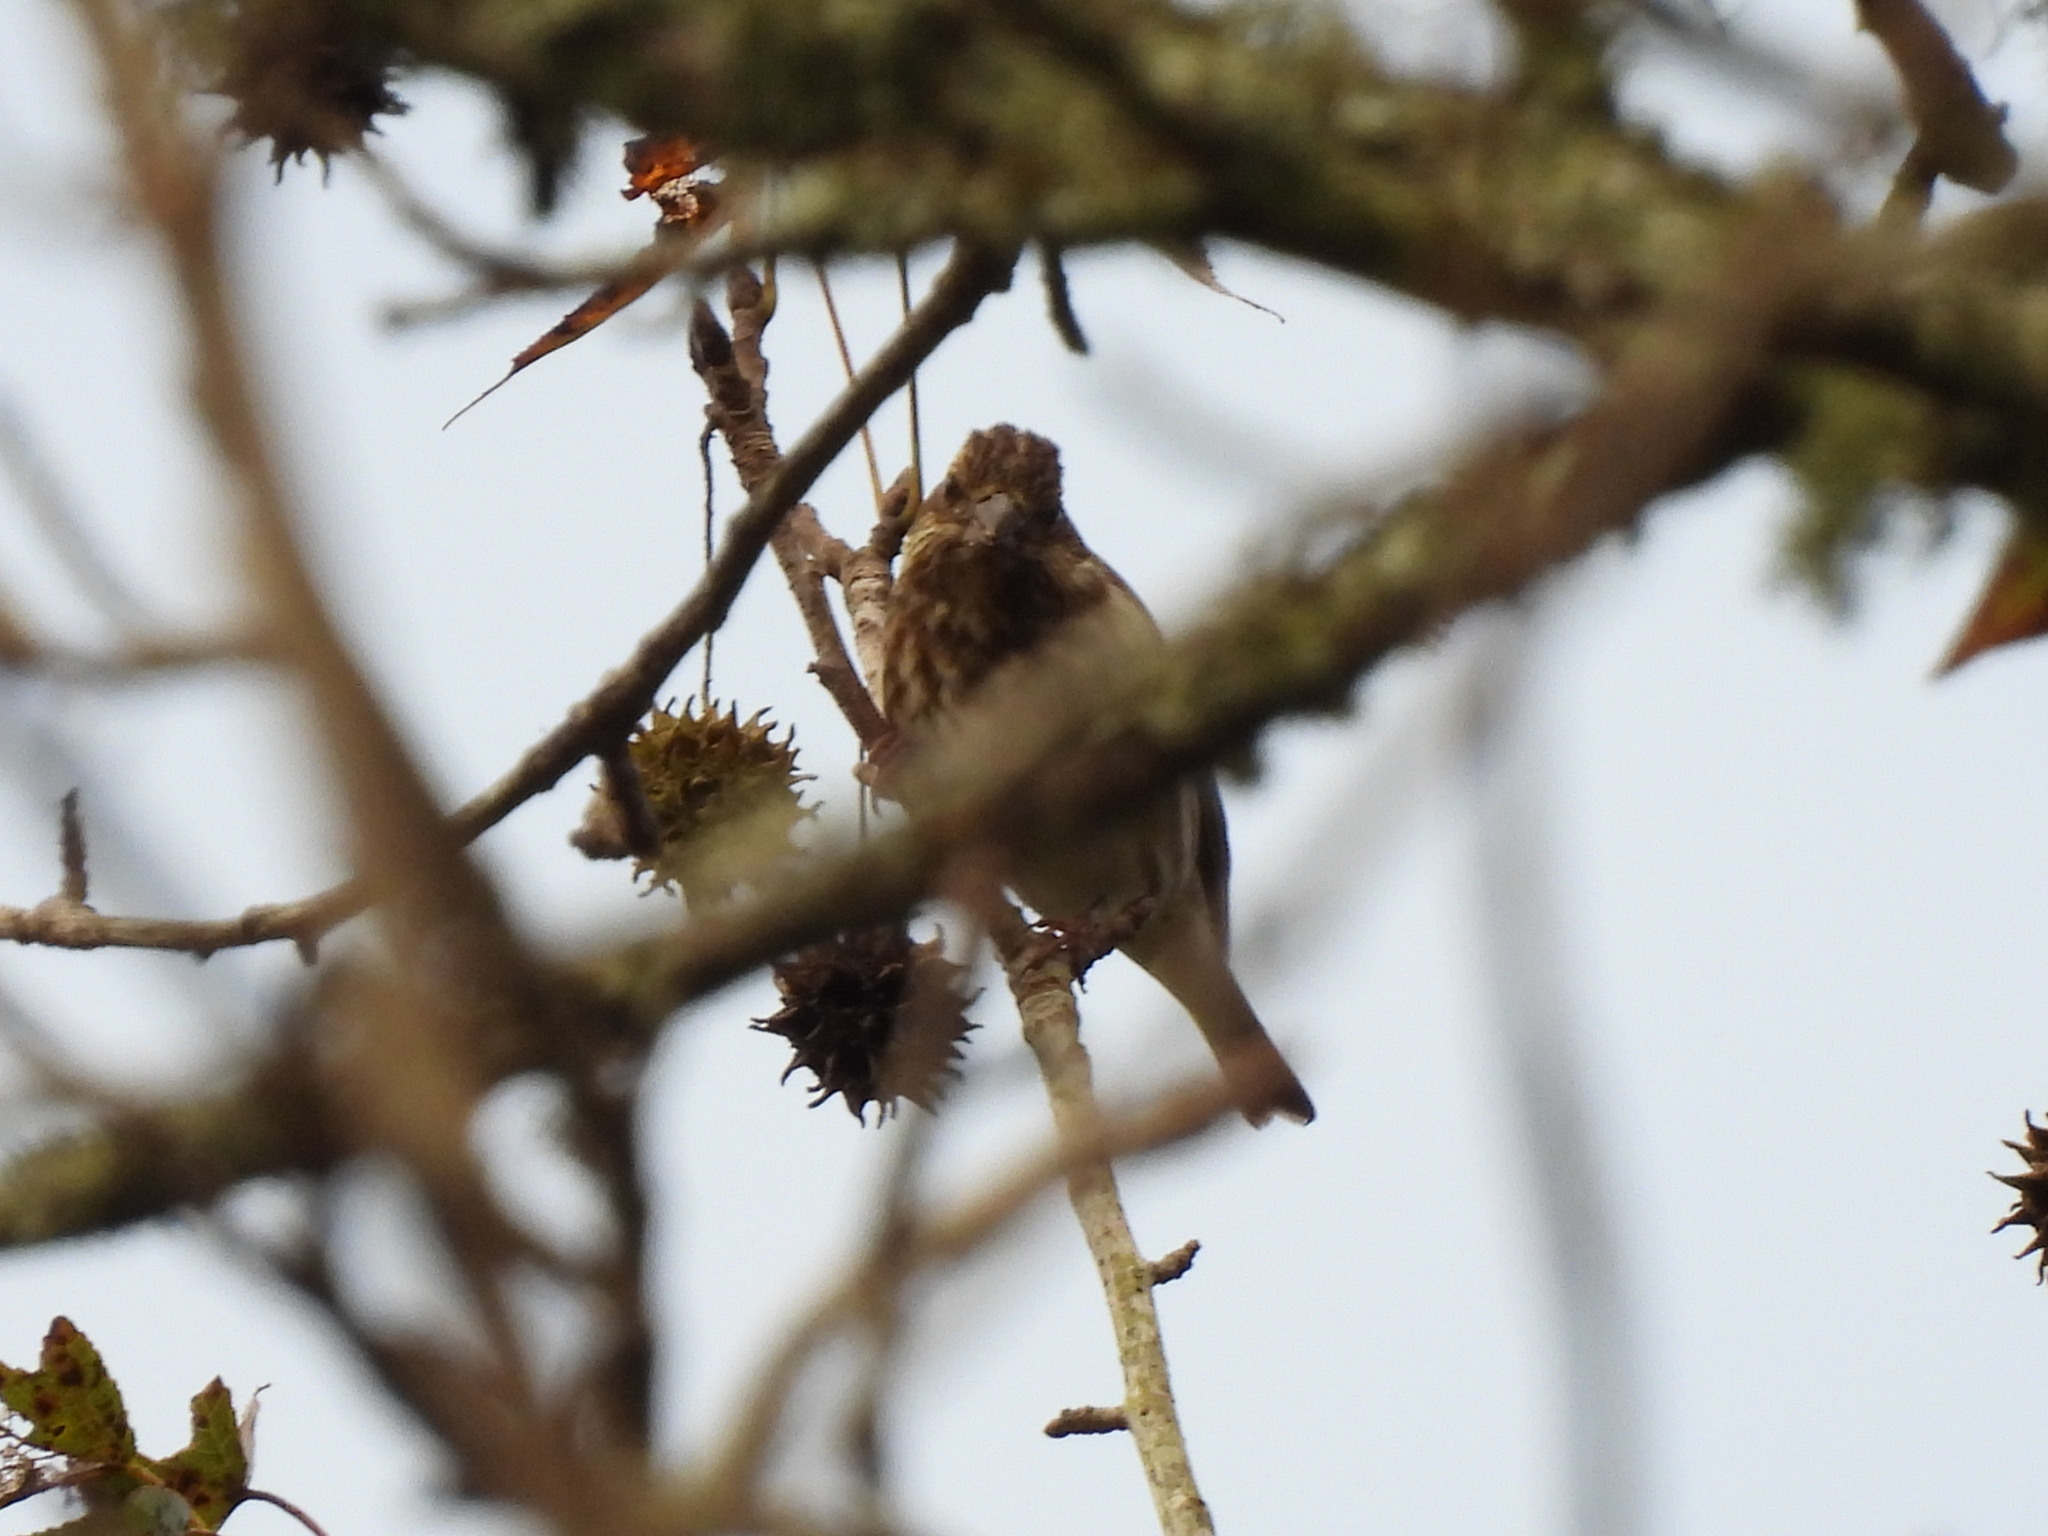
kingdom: Animalia
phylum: Chordata
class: Aves
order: Passeriformes
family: Fringillidae
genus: Haemorhous
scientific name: Haemorhous purpureus
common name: Purple finch
